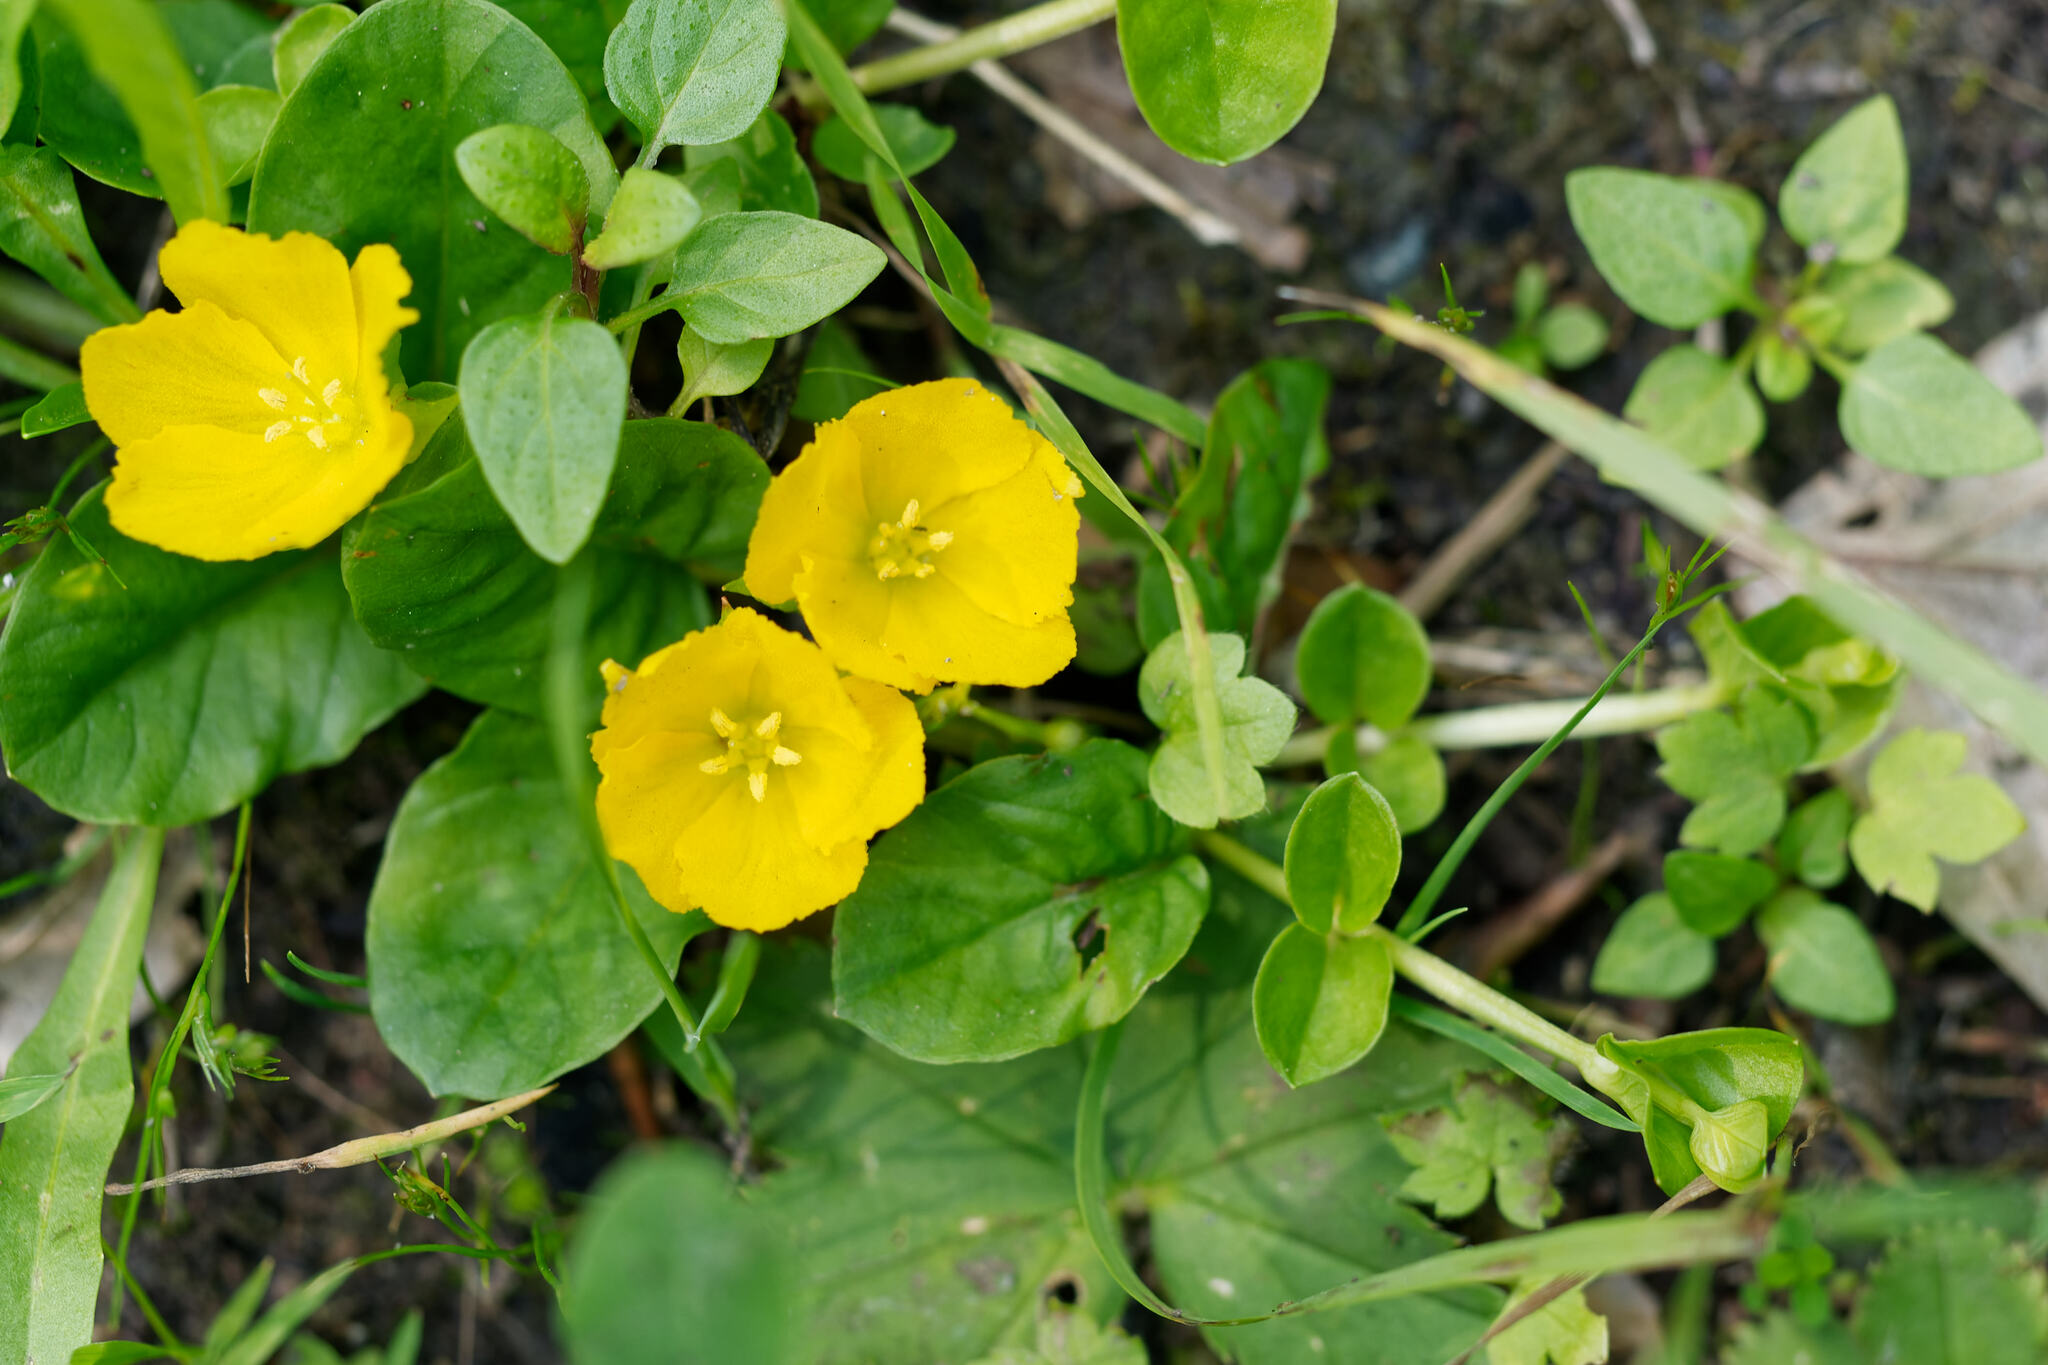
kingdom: Plantae
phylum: Tracheophyta
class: Magnoliopsida
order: Ericales
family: Primulaceae
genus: Lysimachia
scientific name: Lysimachia nummularia
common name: Moneywort
